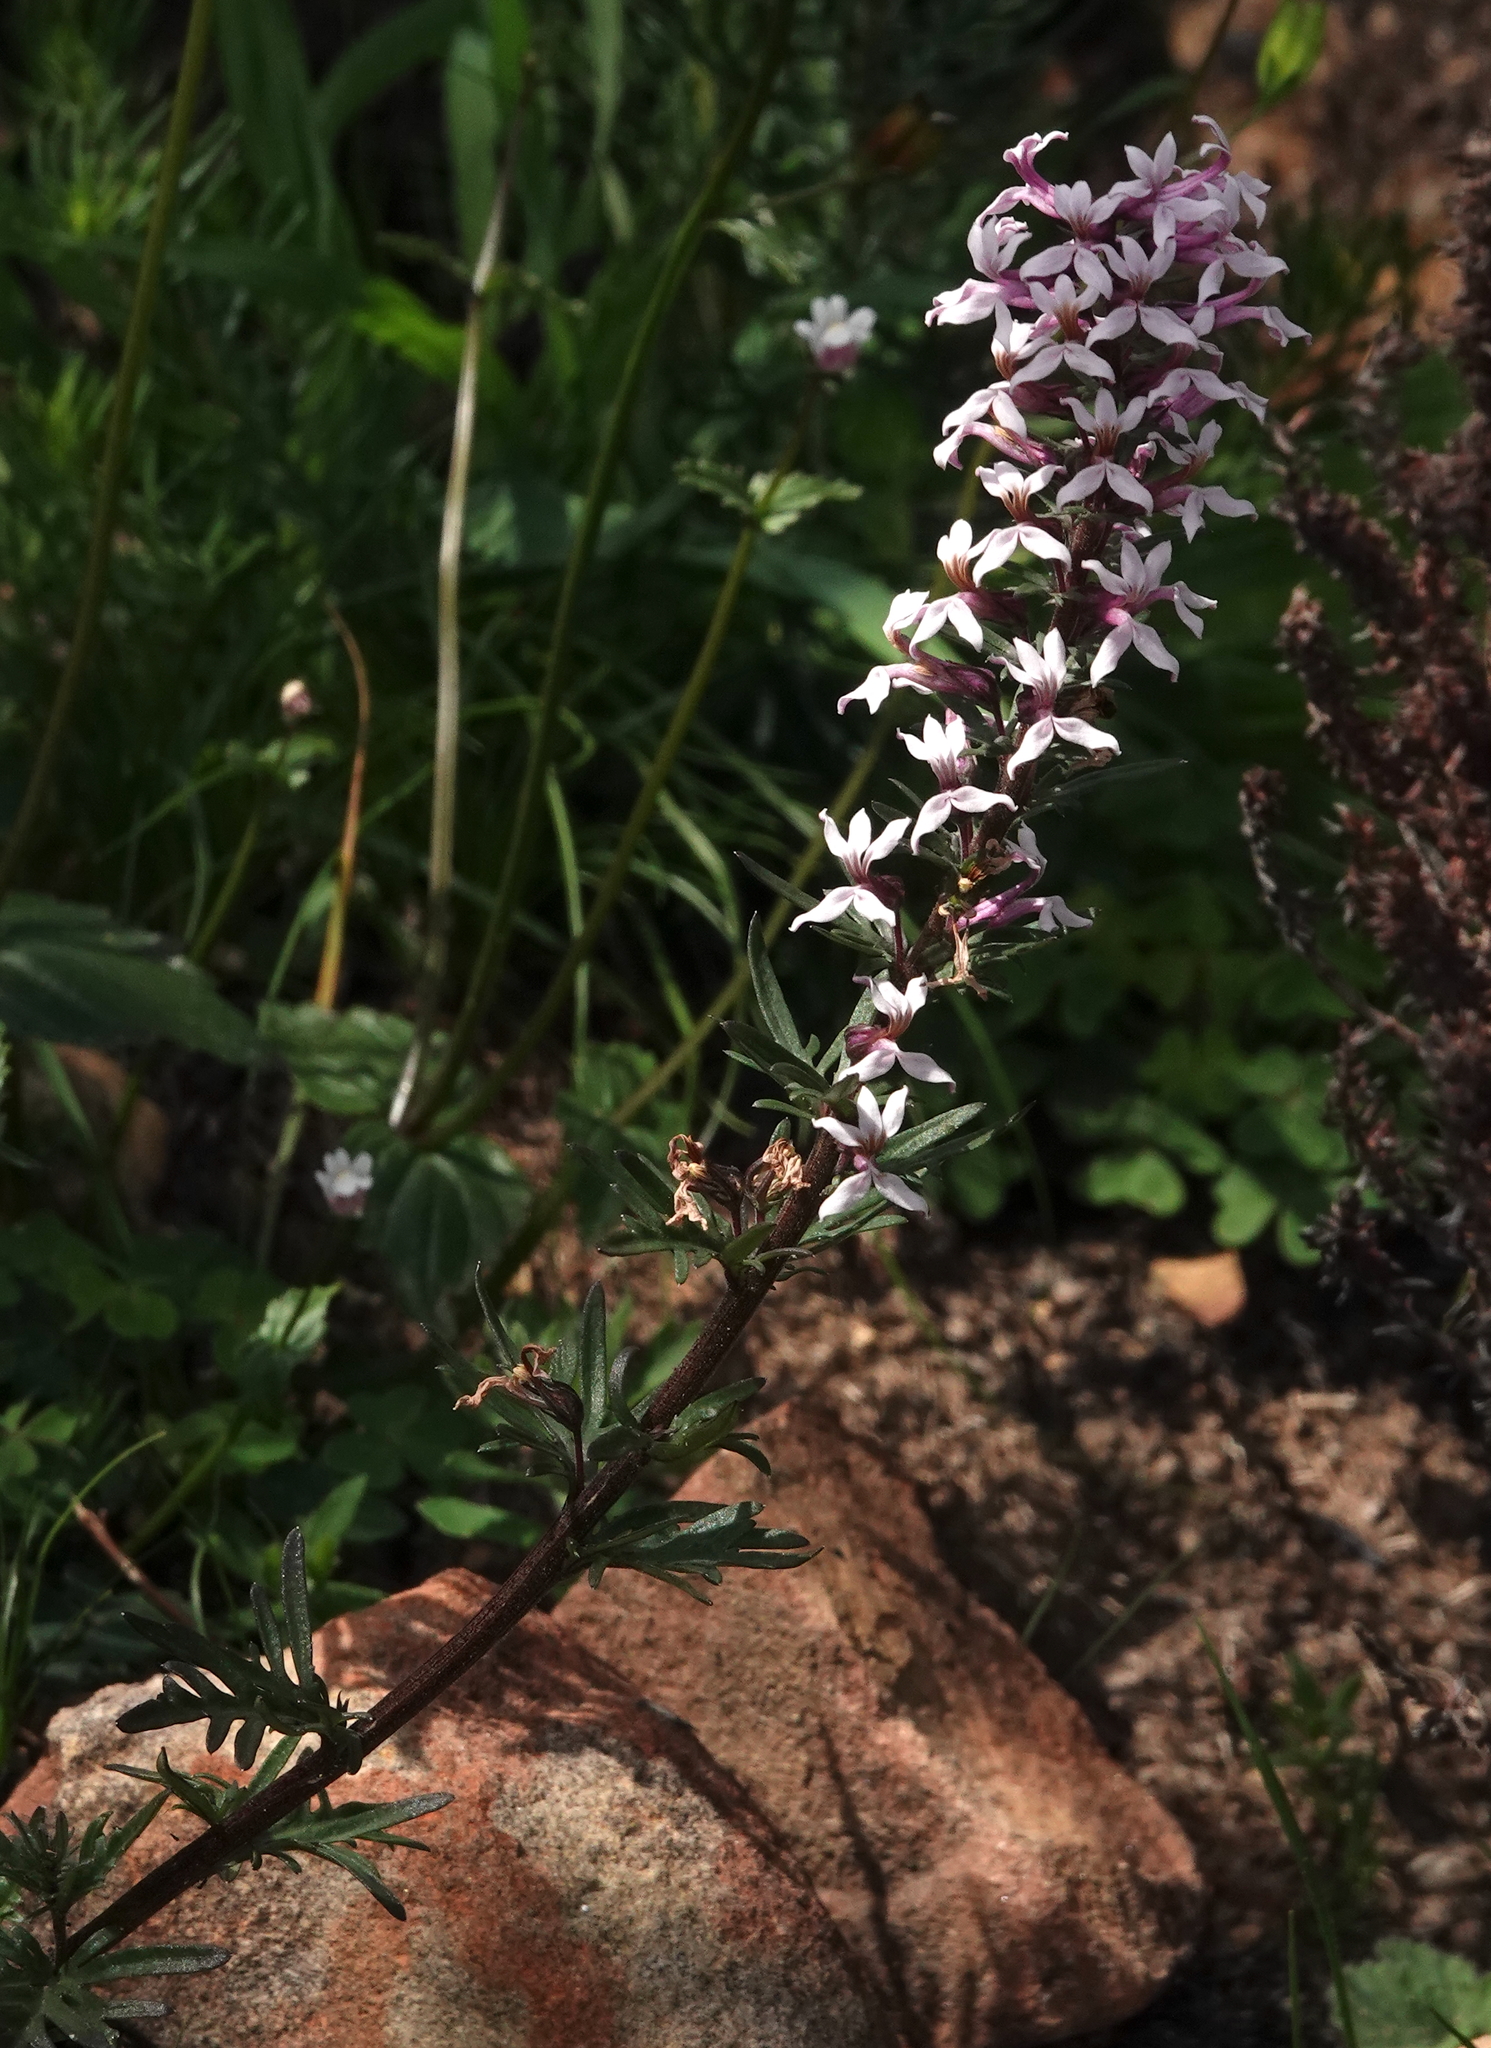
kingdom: Plantae
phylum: Tracheophyta
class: Magnoliopsida
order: Asterales
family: Campanulaceae
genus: Cyphia
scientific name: Cyphia bulbosa
